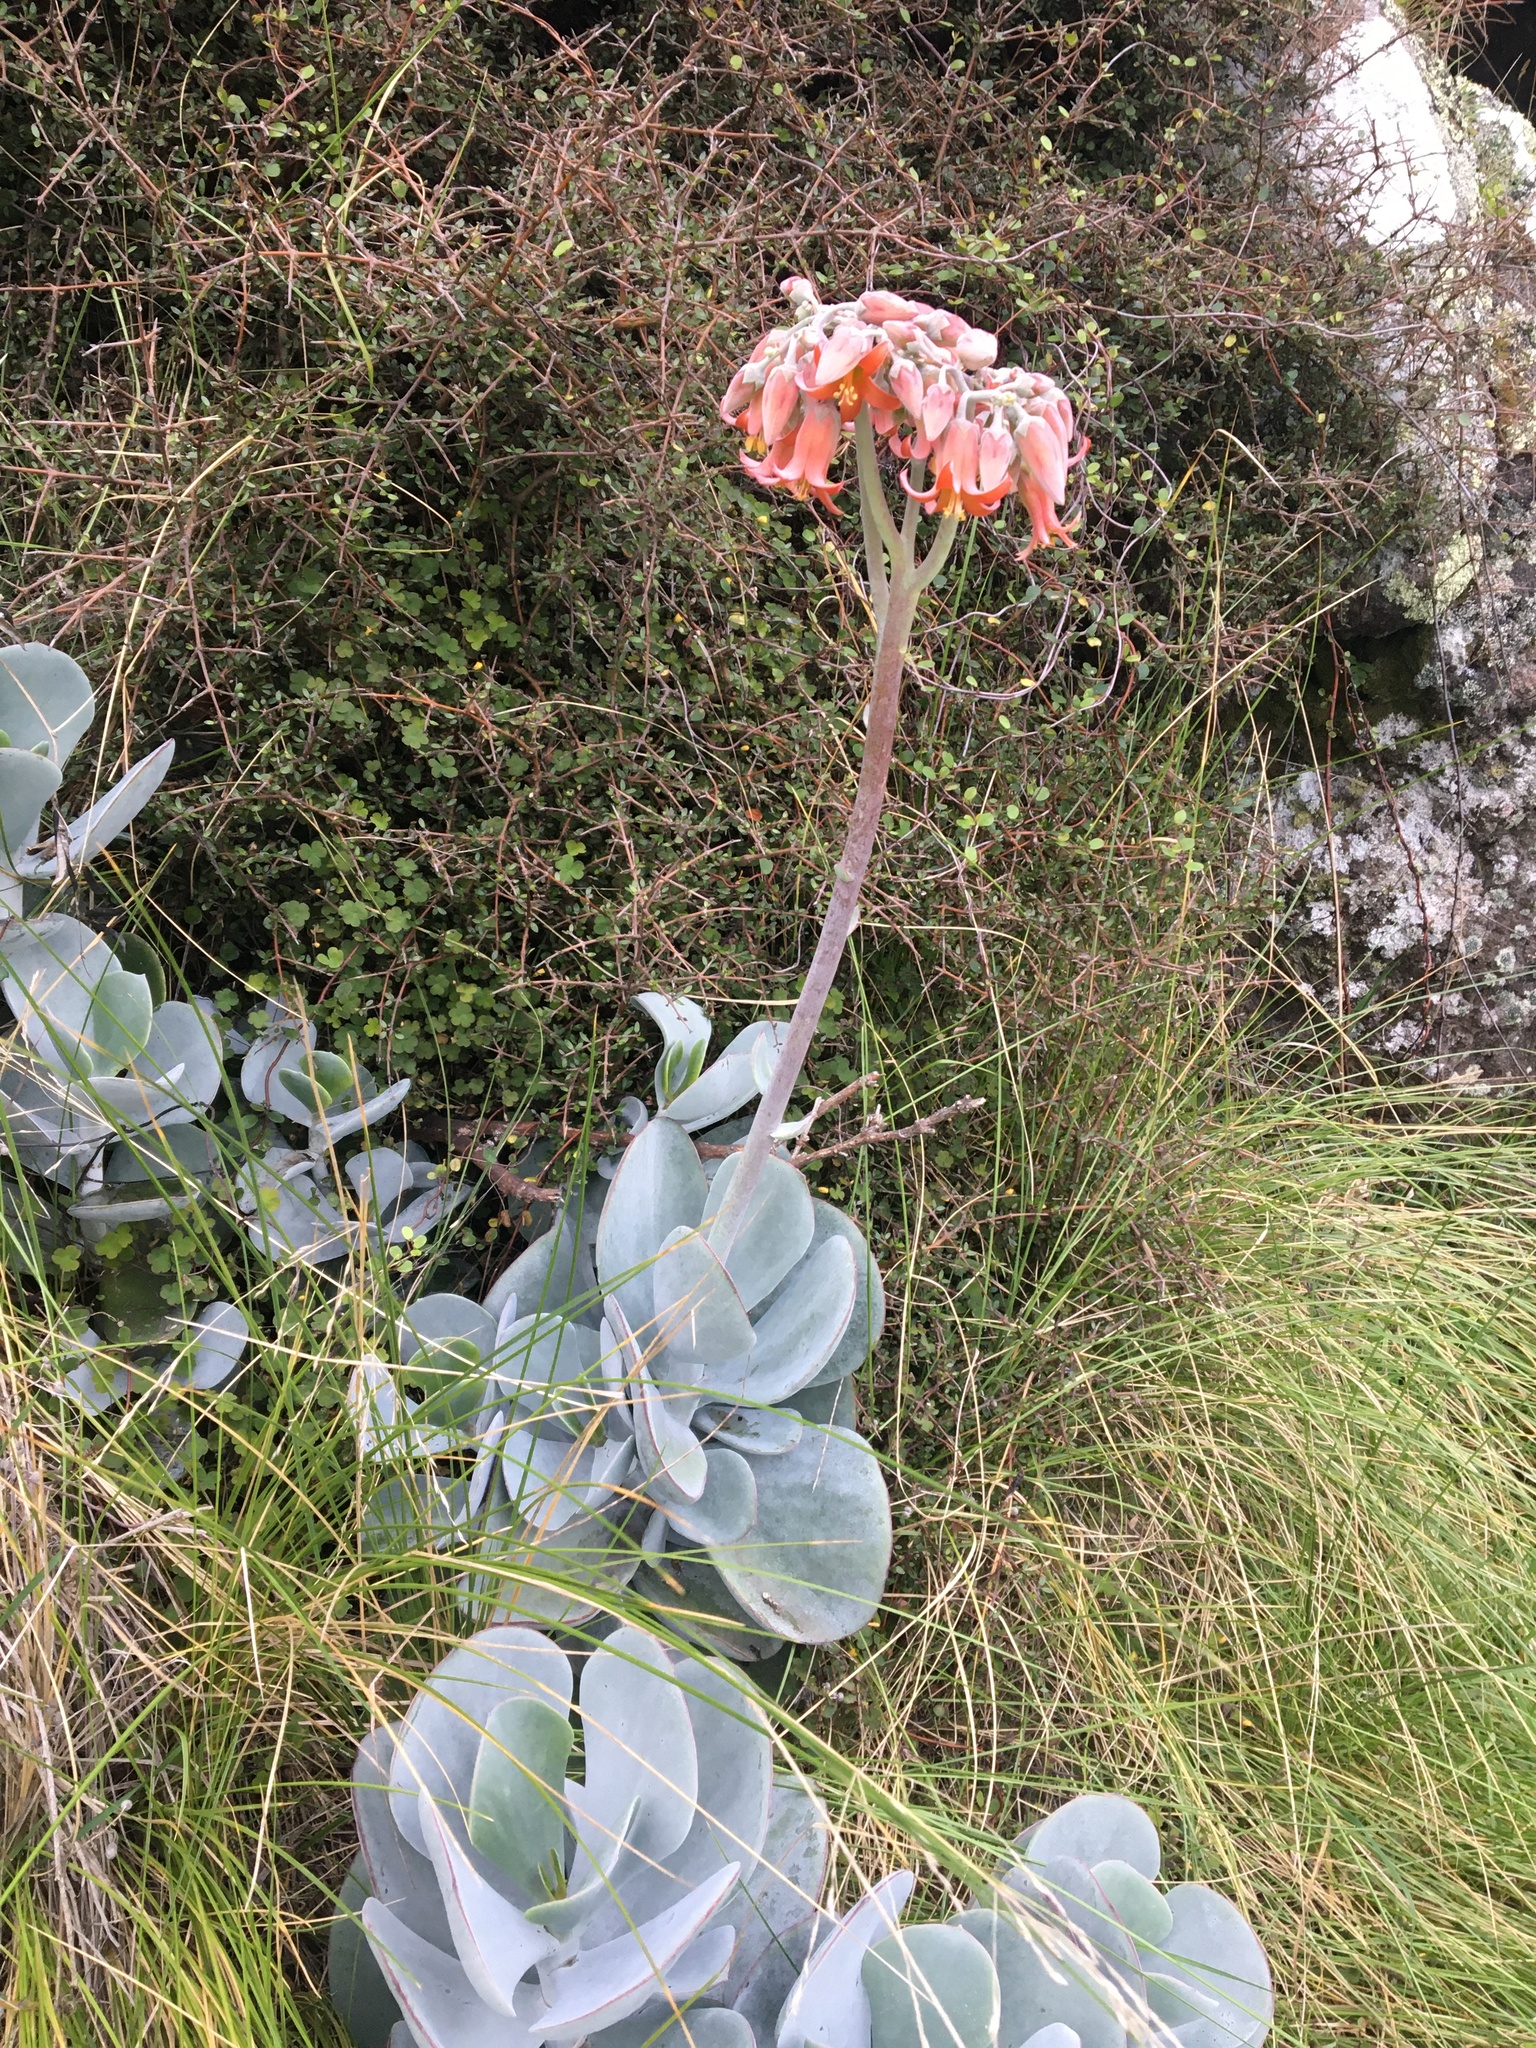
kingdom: Plantae
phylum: Tracheophyta
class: Magnoliopsida
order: Saxifragales
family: Crassulaceae
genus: Cotyledon
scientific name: Cotyledon orbiculata
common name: Pig's ear
